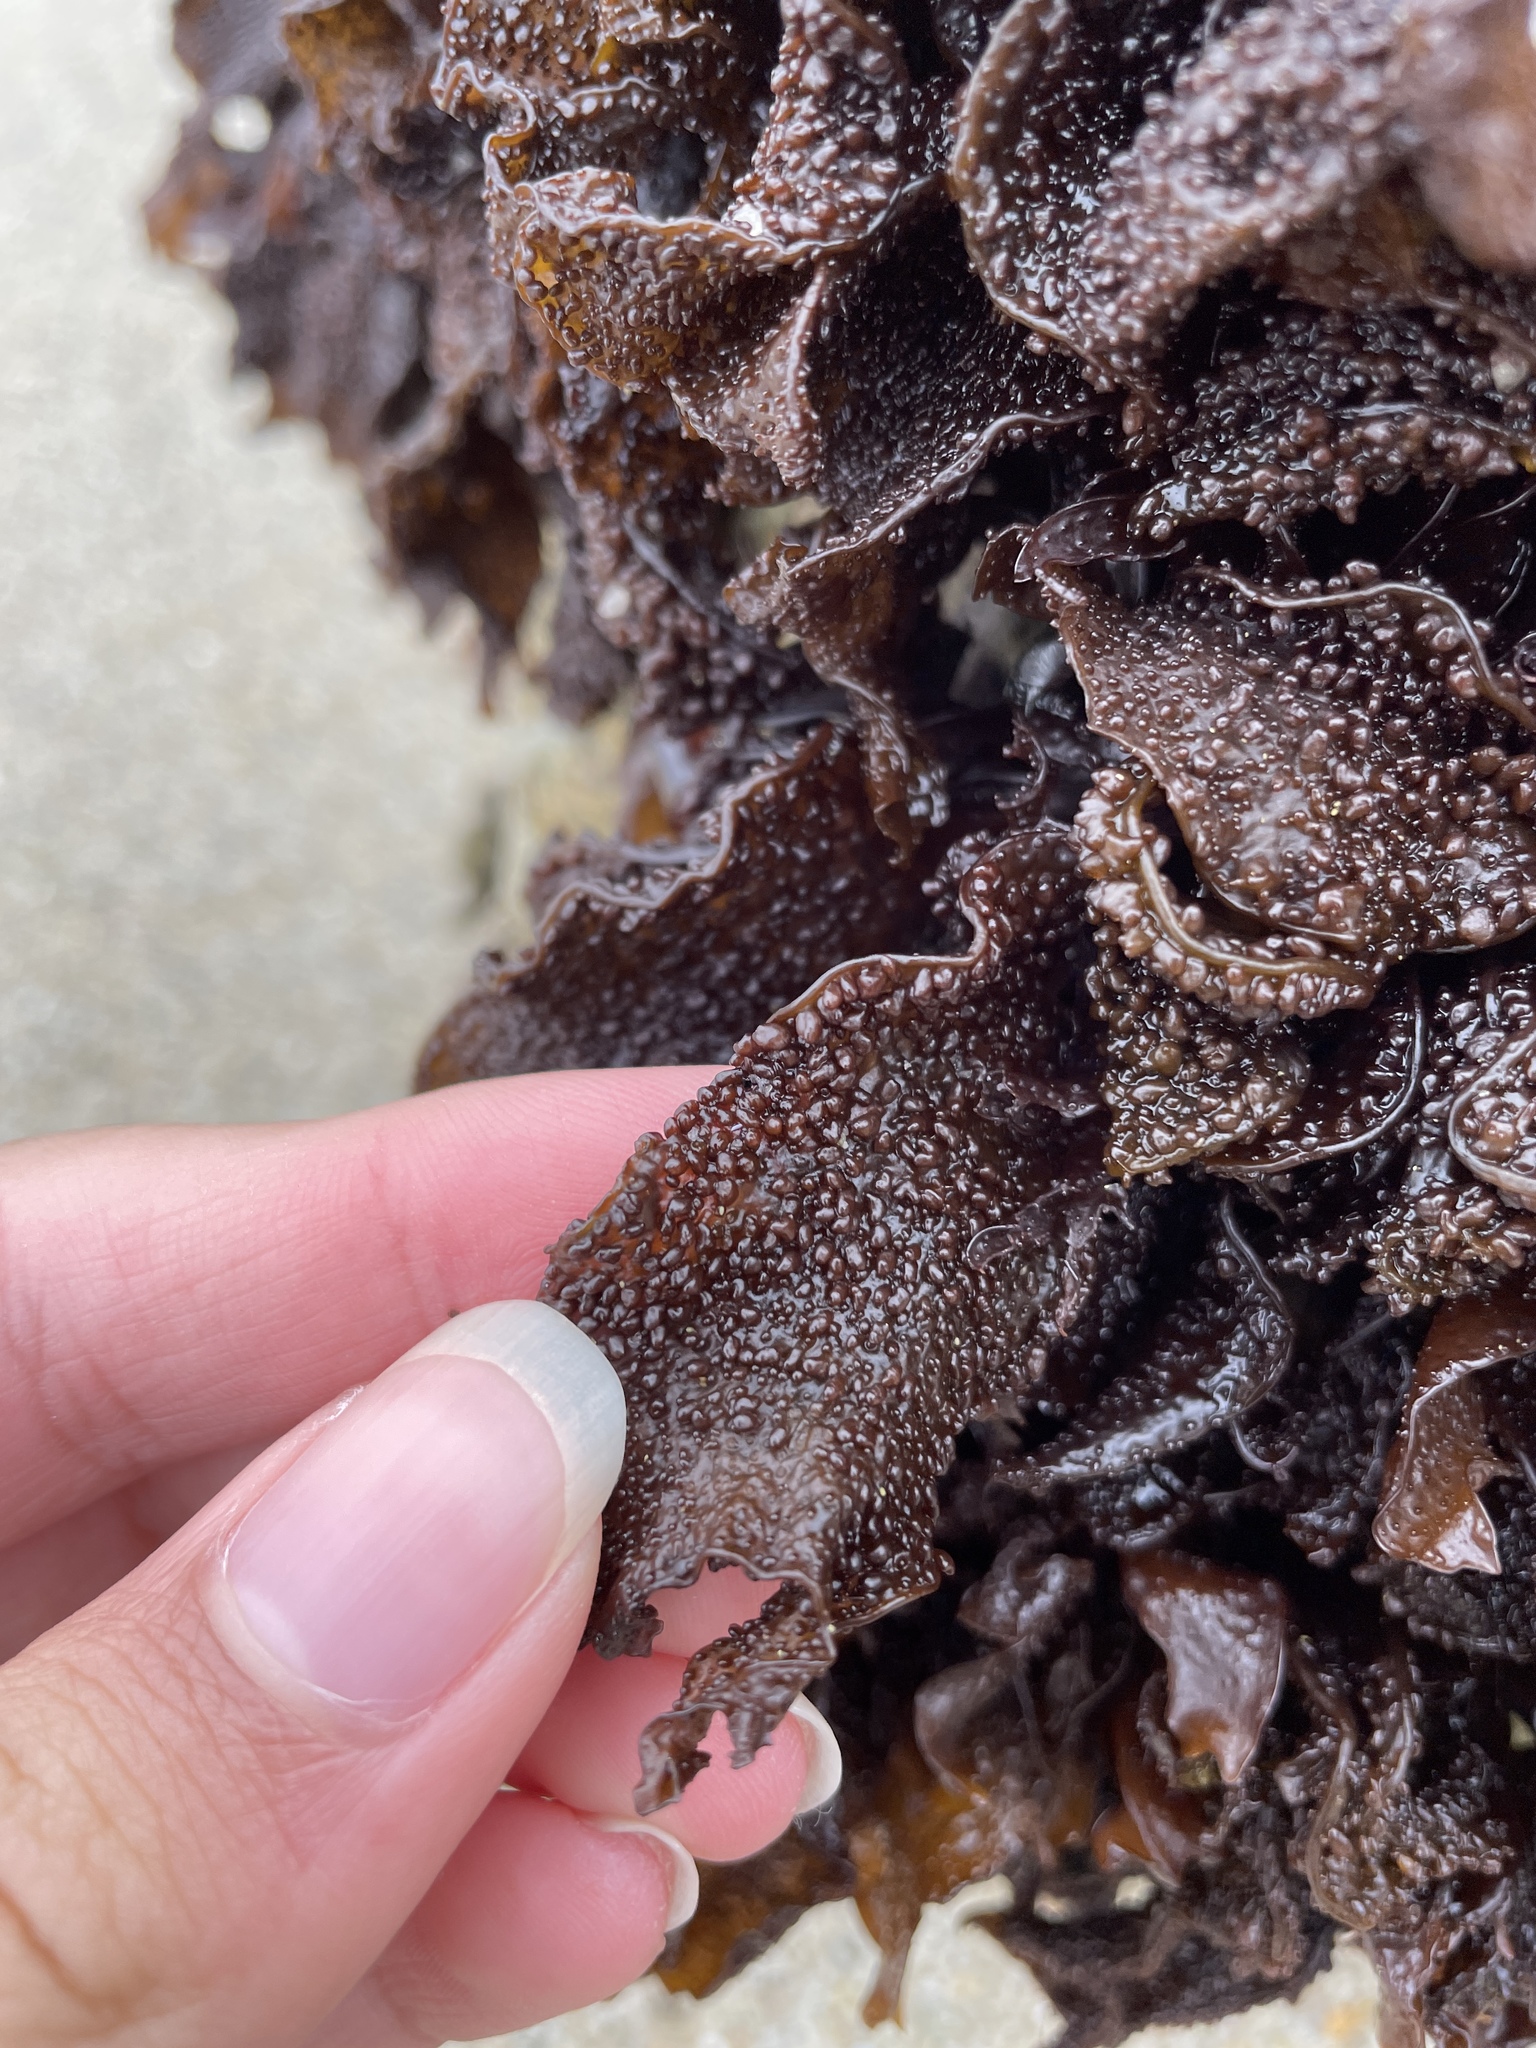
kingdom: Plantae
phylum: Rhodophyta
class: Florideophyceae
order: Gigartinales
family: Phyllophoraceae
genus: Mastocarpus
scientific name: Mastocarpus papillatus
